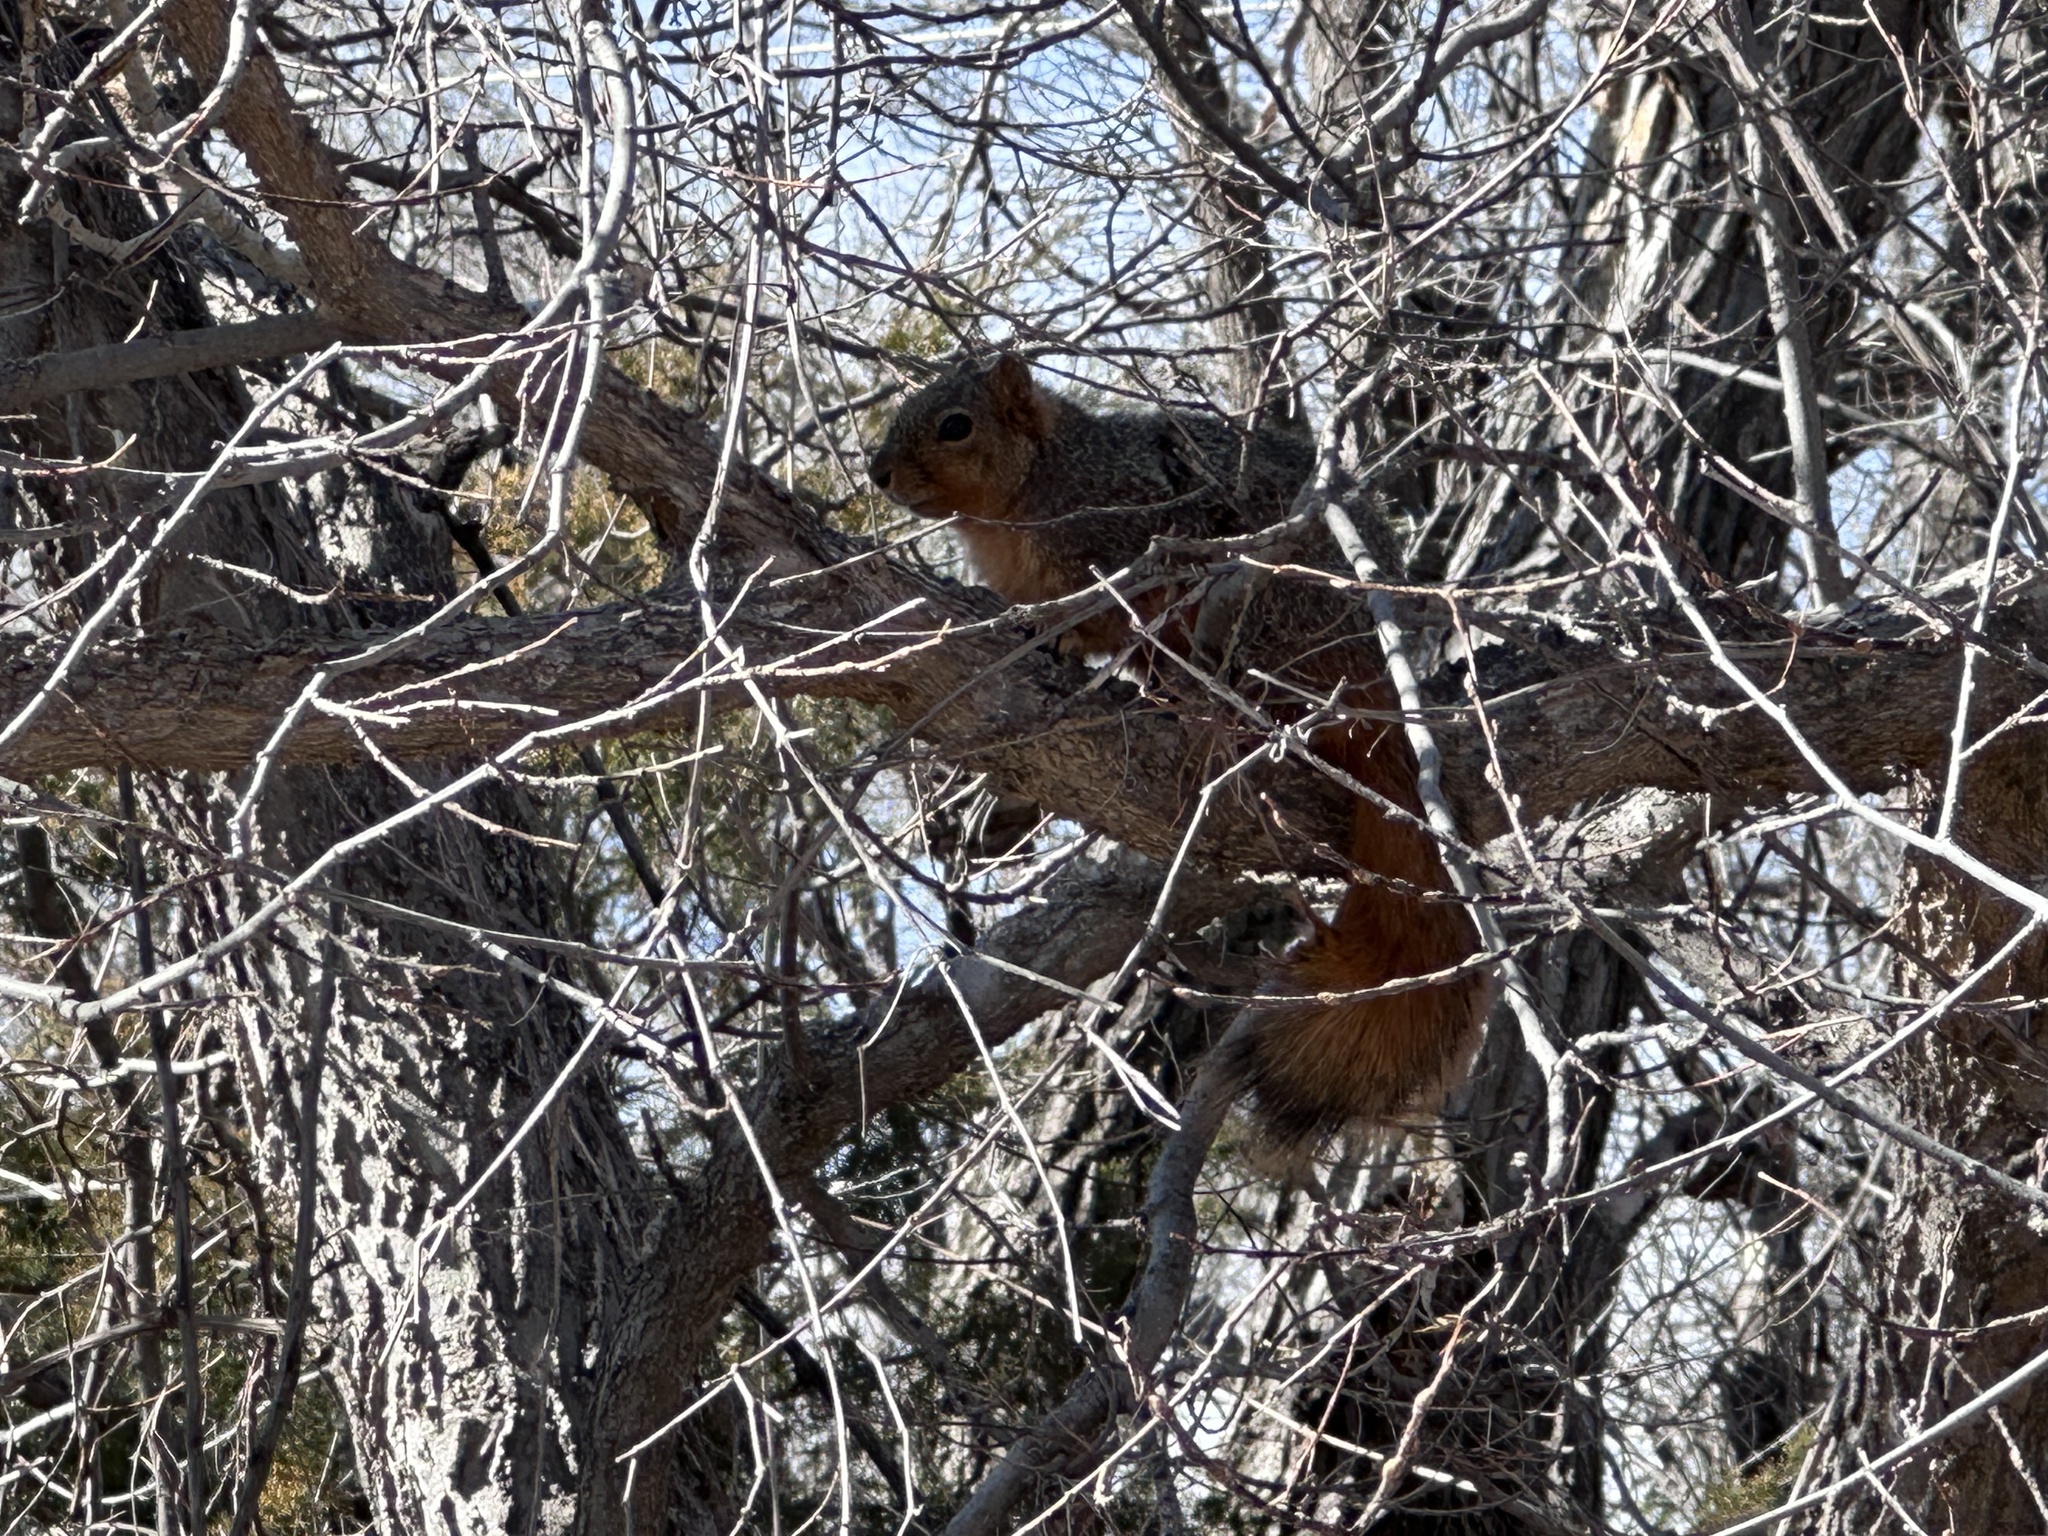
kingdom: Animalia
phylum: Chordata
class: Mammalia
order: Rodentia
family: Sciuridae
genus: Sciurus
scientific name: Sciurus niger
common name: Fox squirrel
